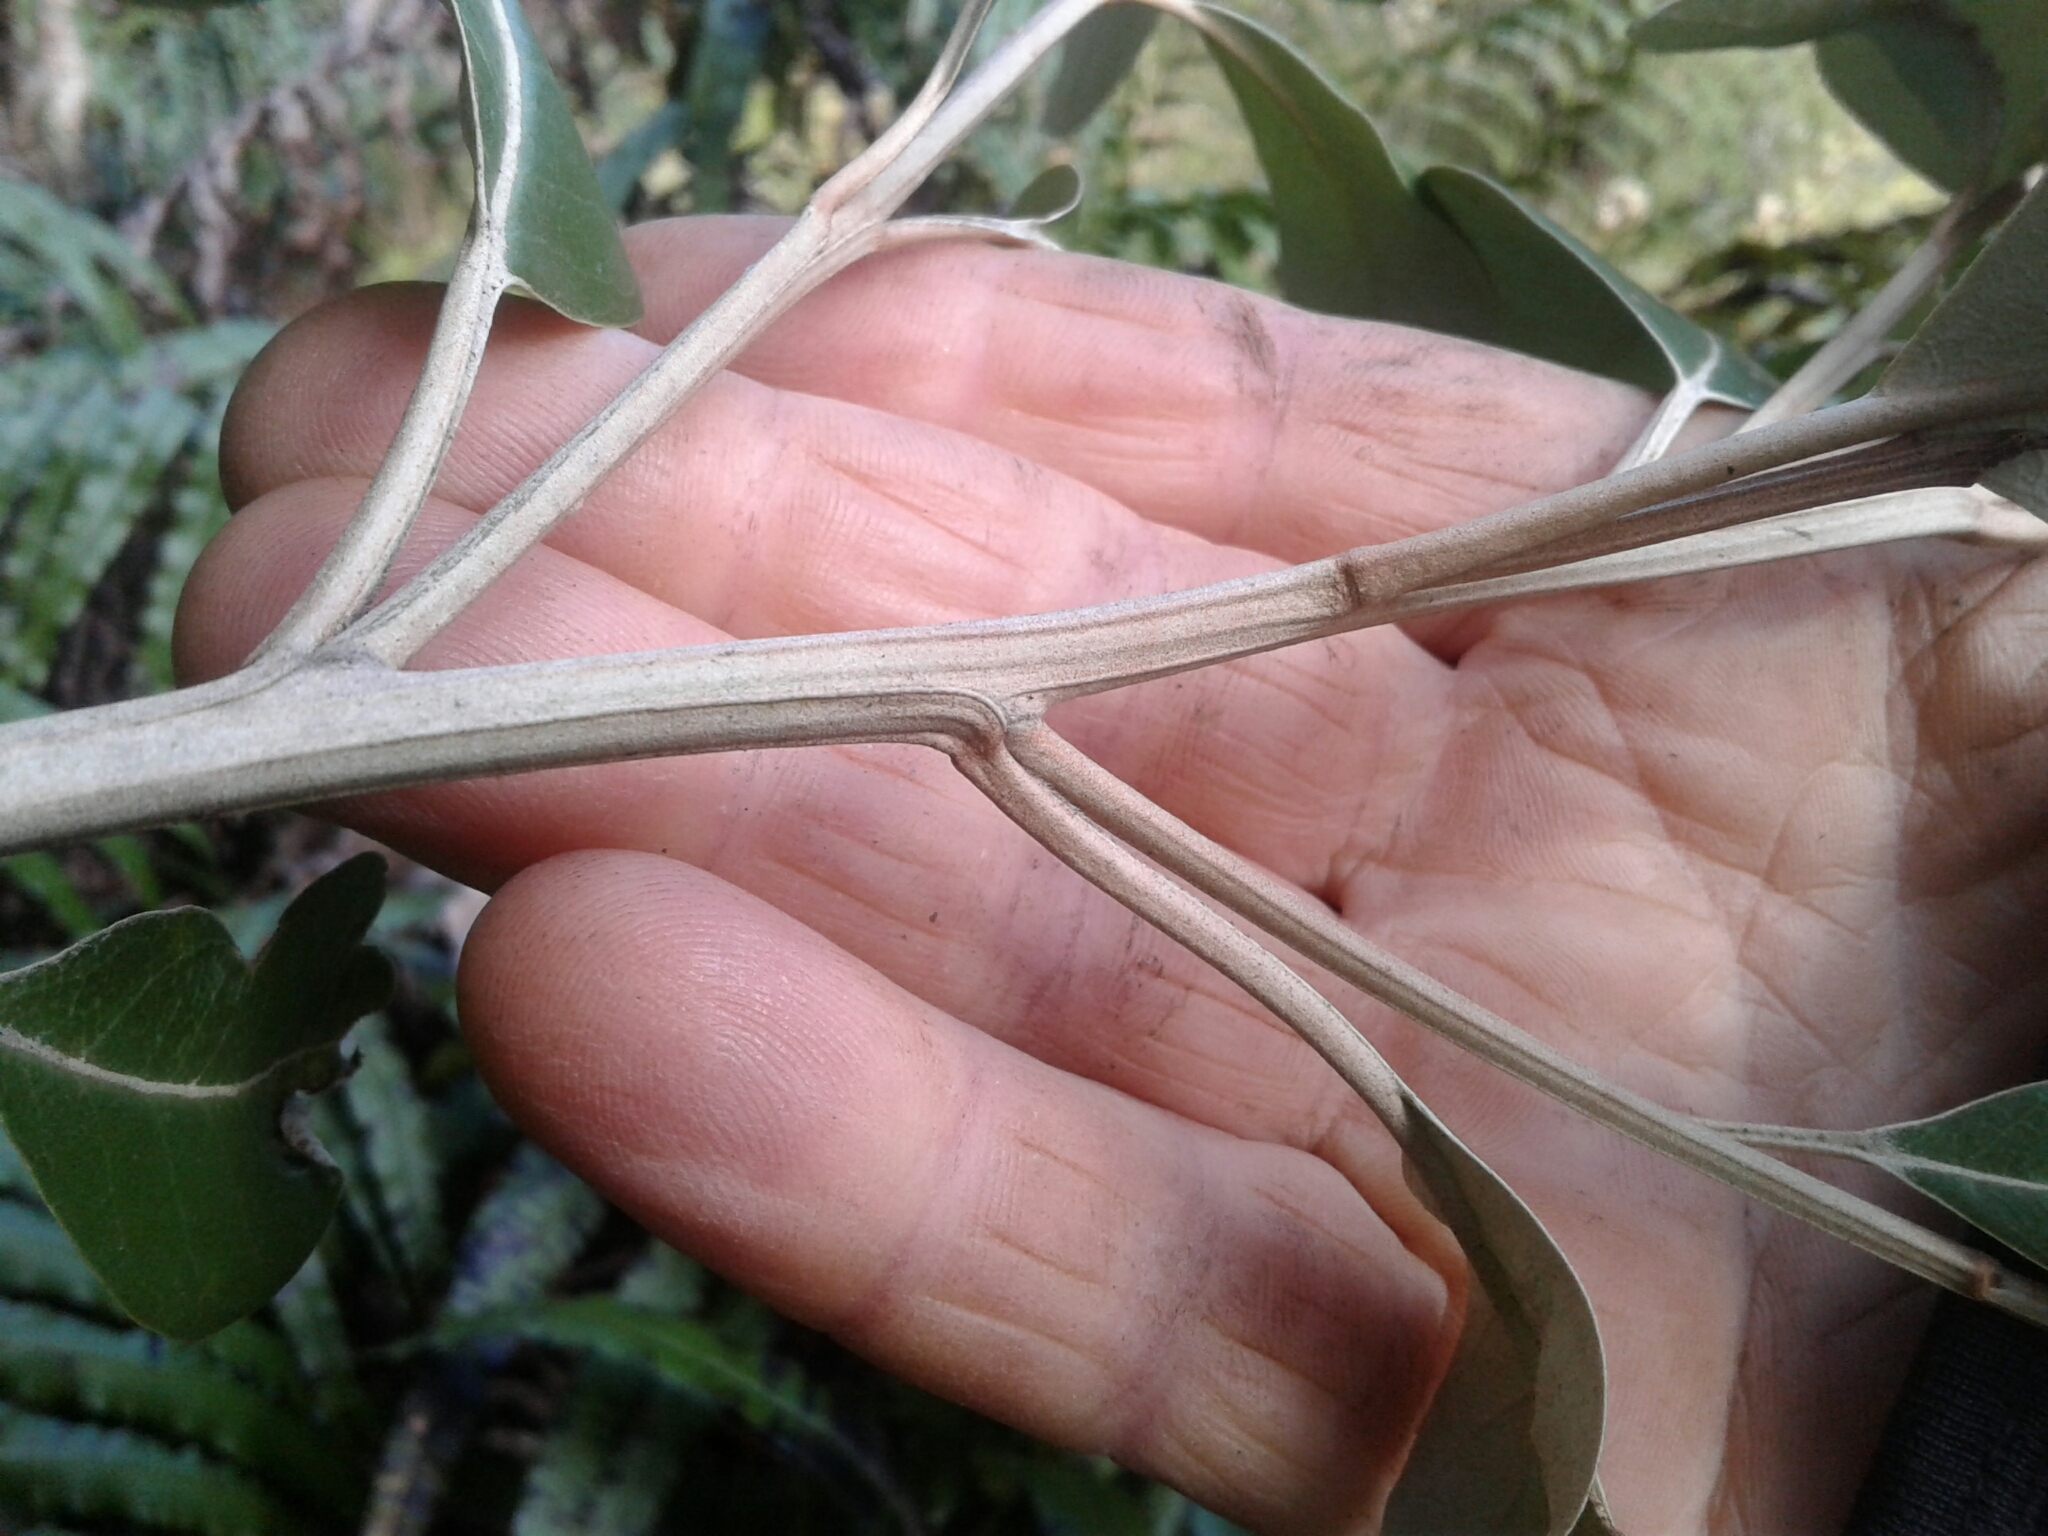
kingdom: Plantae
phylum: Tracheophyta
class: Magnoliopsida
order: Asterales
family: Asteraceae
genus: Olearia
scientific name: Olearia avicenniifolia
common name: Mangrove-leaf daisybush
